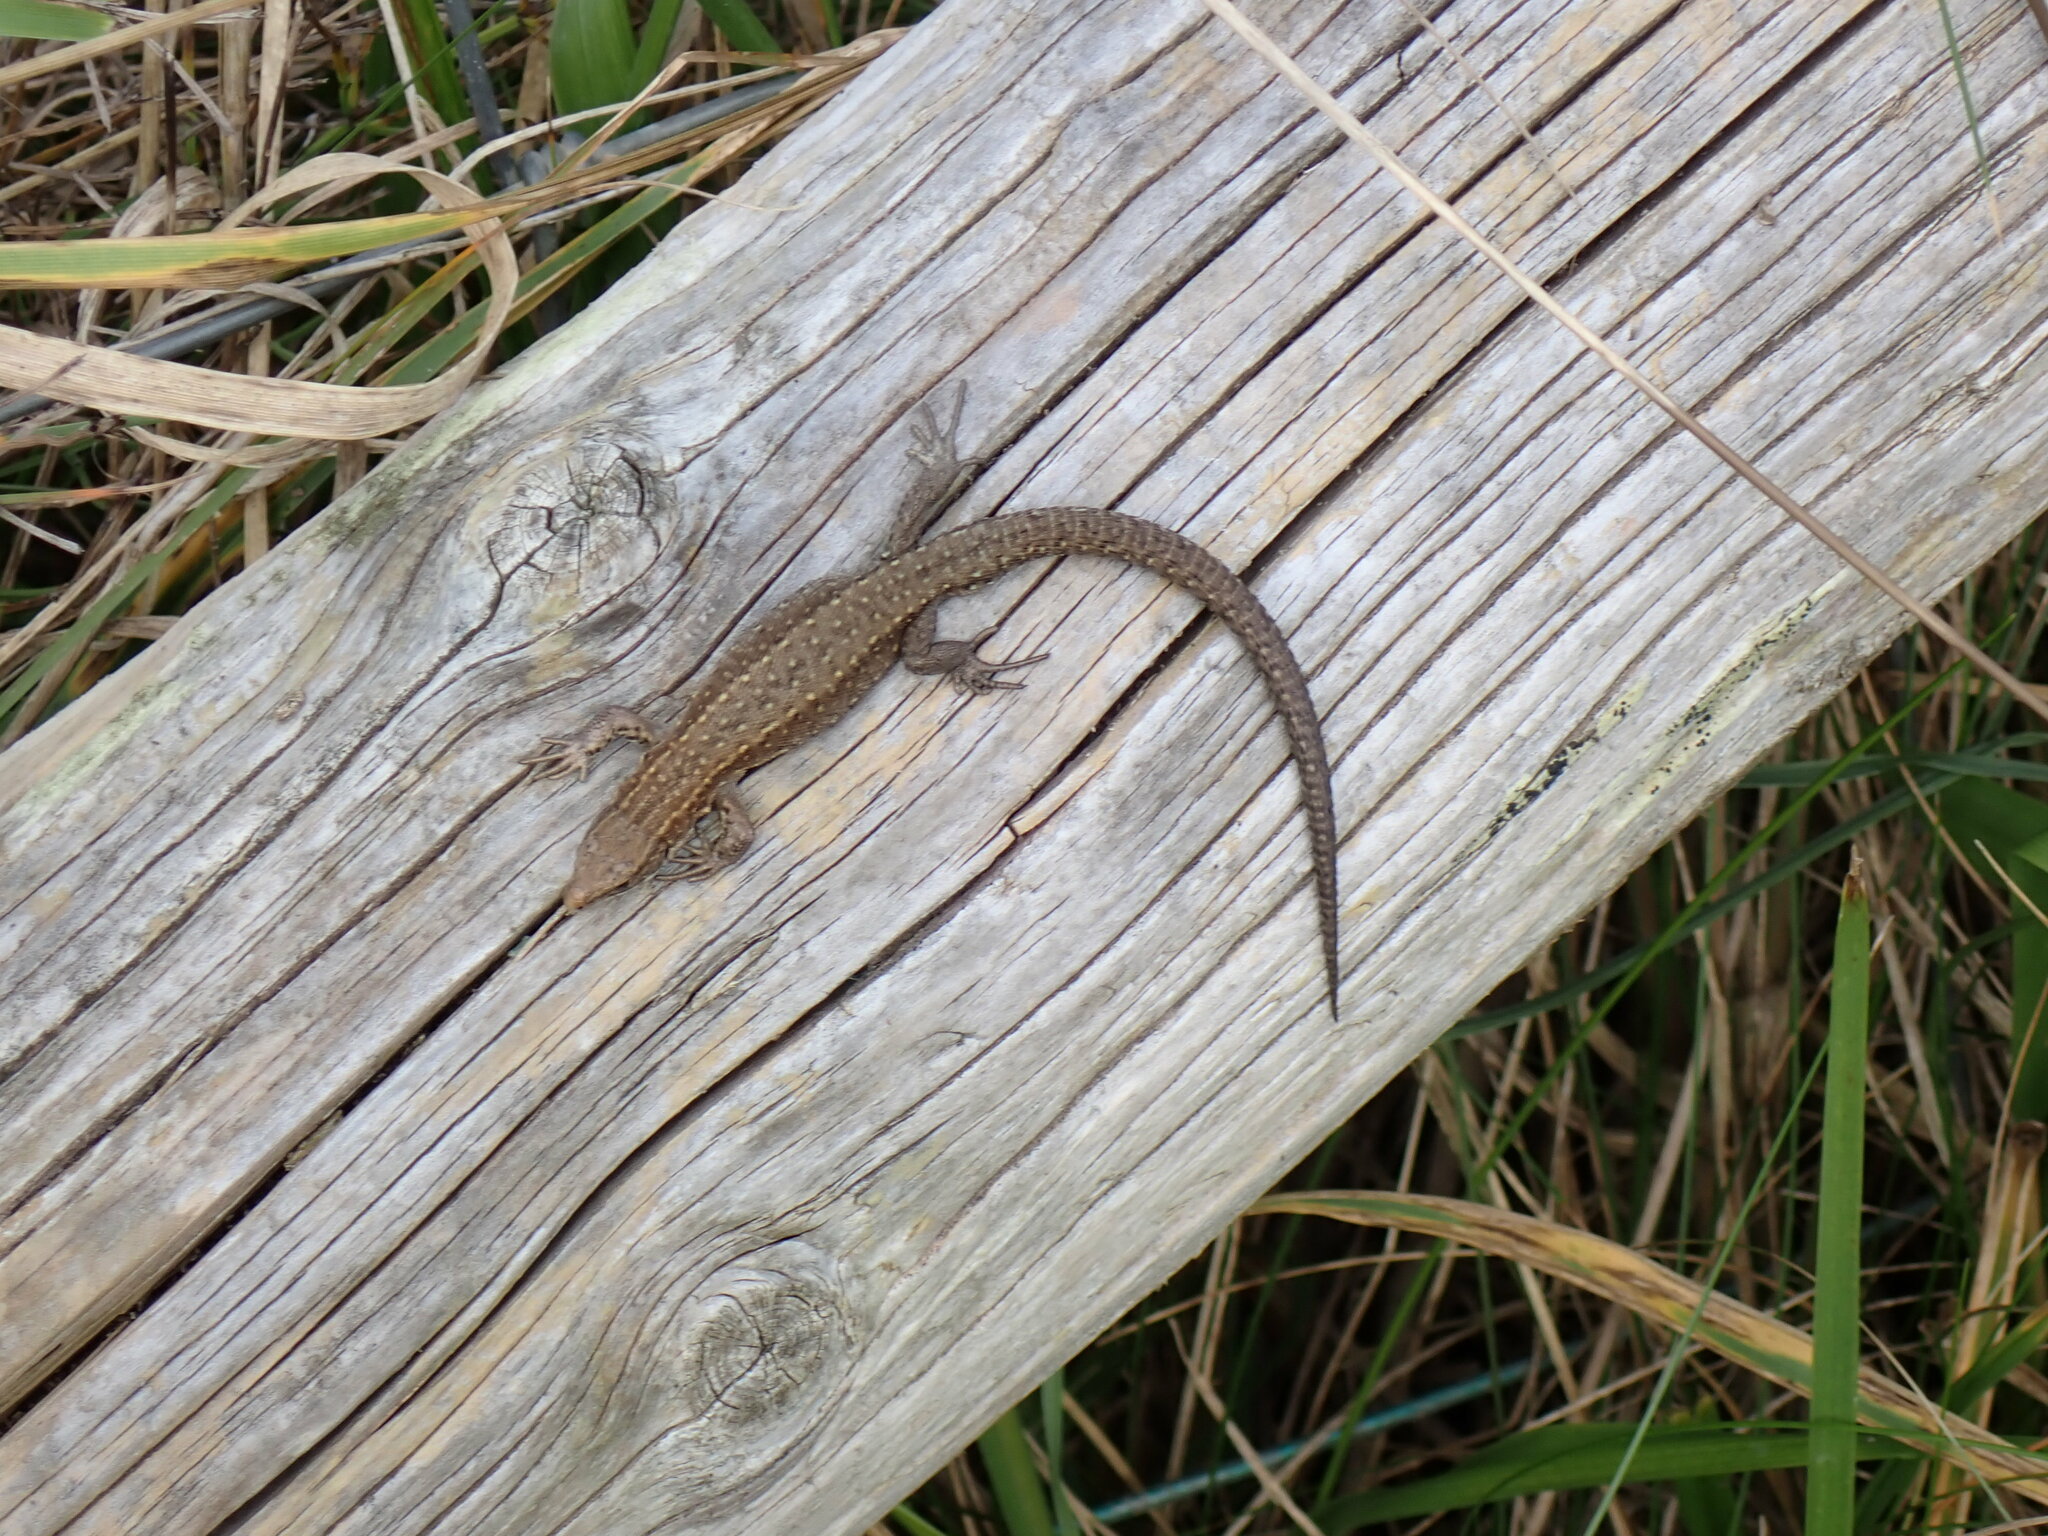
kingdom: Animalia
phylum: Chordata
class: Squamata
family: Lacertidae
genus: Zootoca
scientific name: Zootoca vivipara
